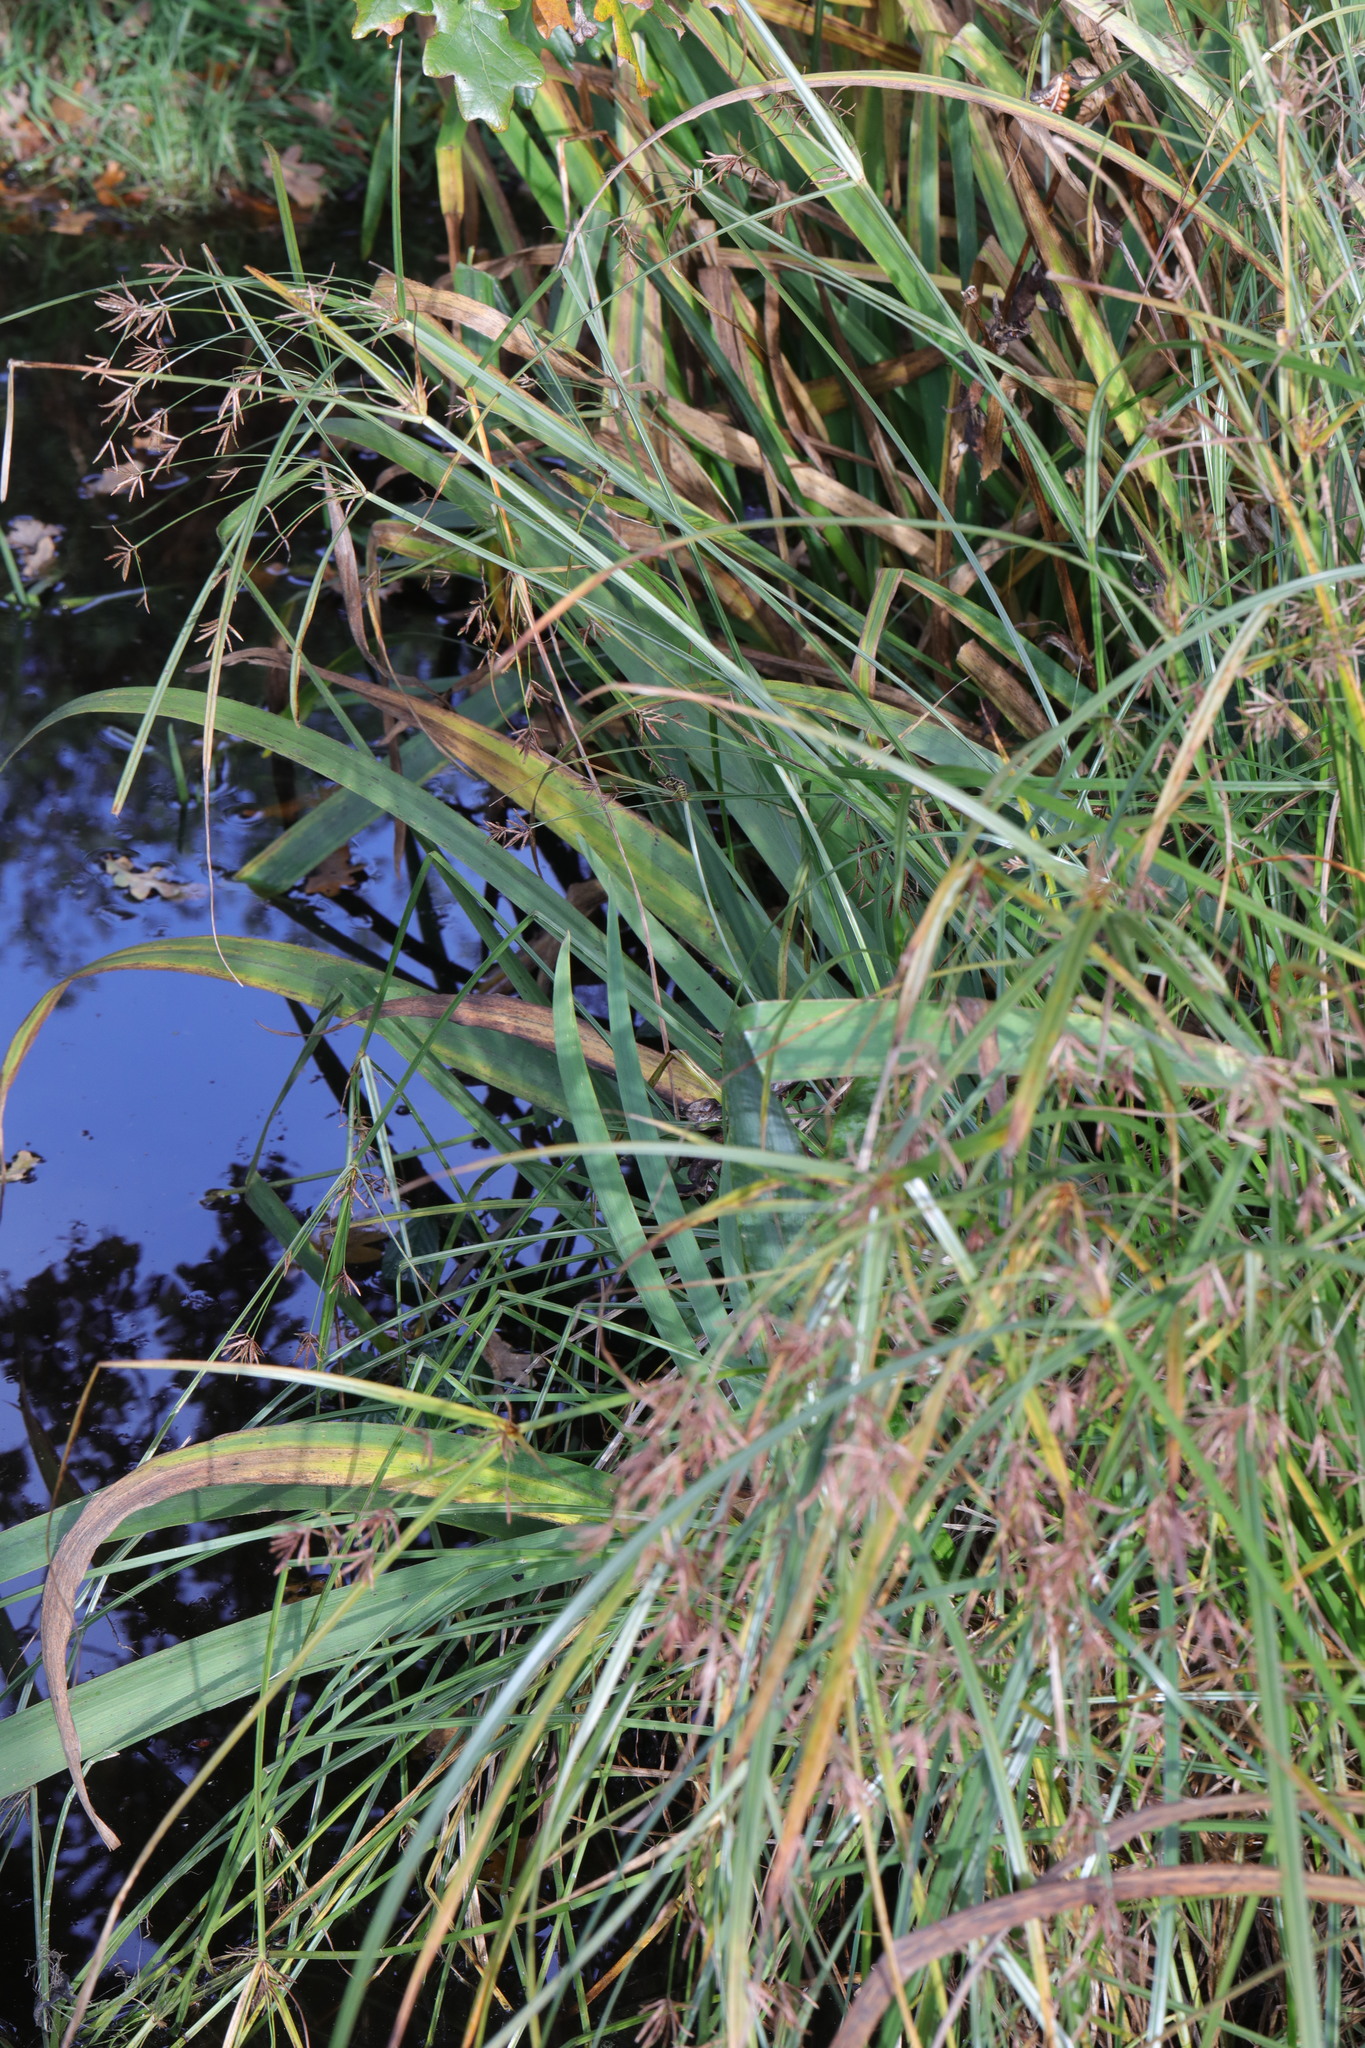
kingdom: Plantae
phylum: Tracheophyta
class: Liliopsida
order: Poales
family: Cyperaceae
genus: Cyperus
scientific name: Cyperus longus
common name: Galingale
